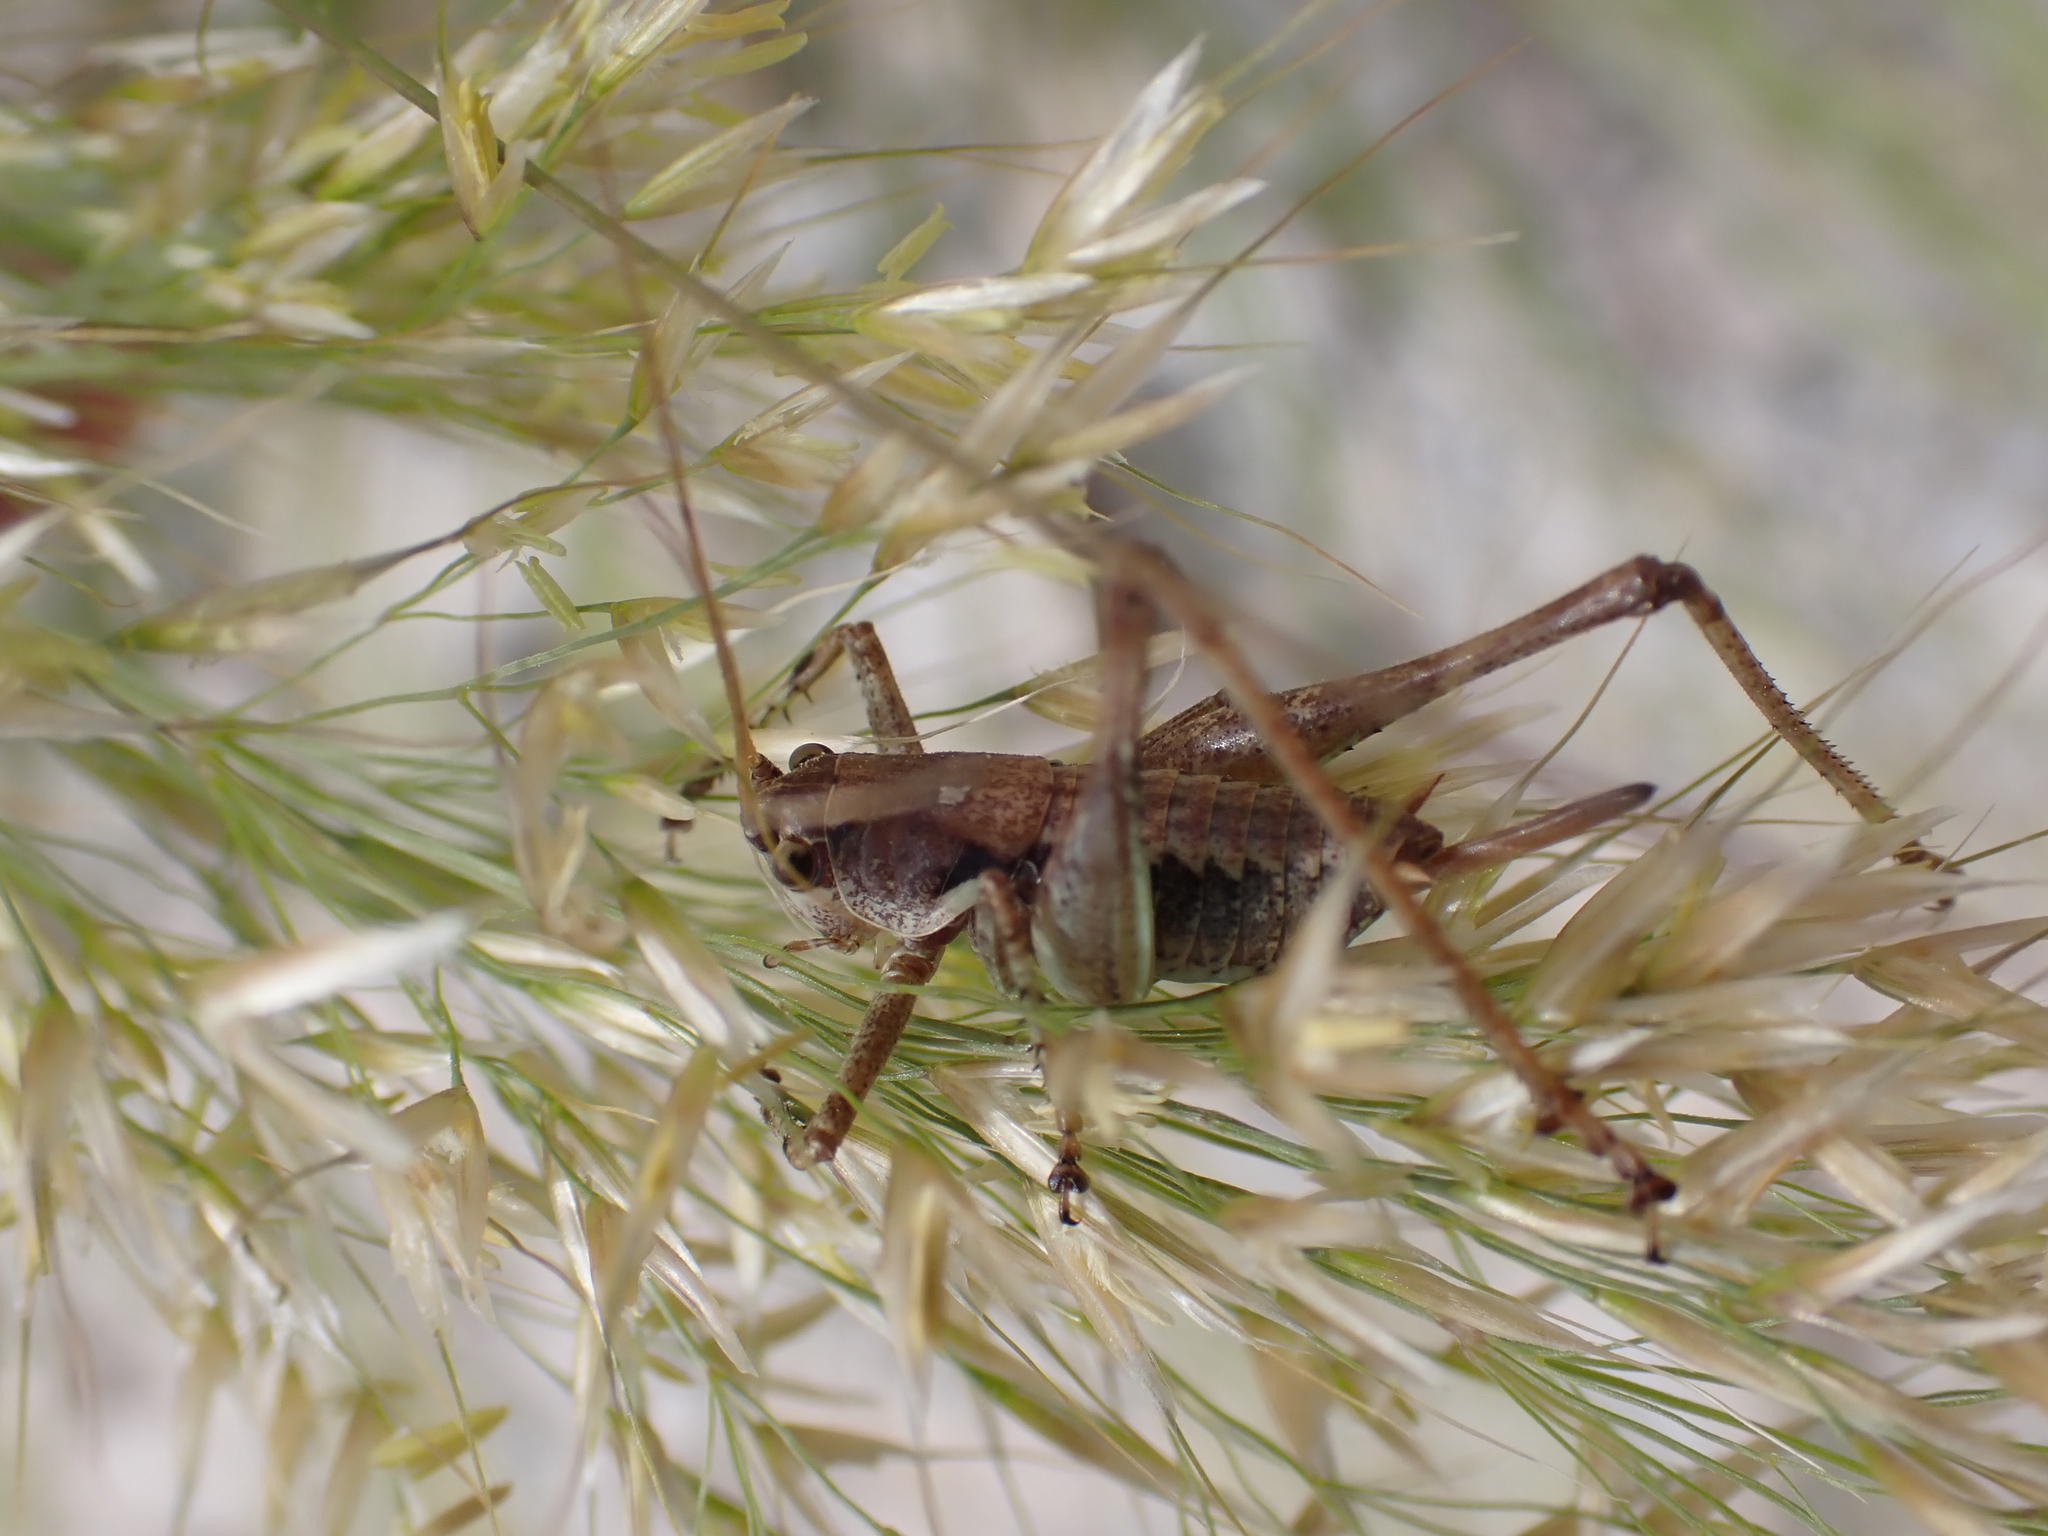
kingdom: Animalia
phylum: Arthropoda
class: Insecta
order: Orthoptera
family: Tettigoniidae
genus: Antaxius
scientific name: Antaxius pedestris
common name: Common mountain bush-cricket
